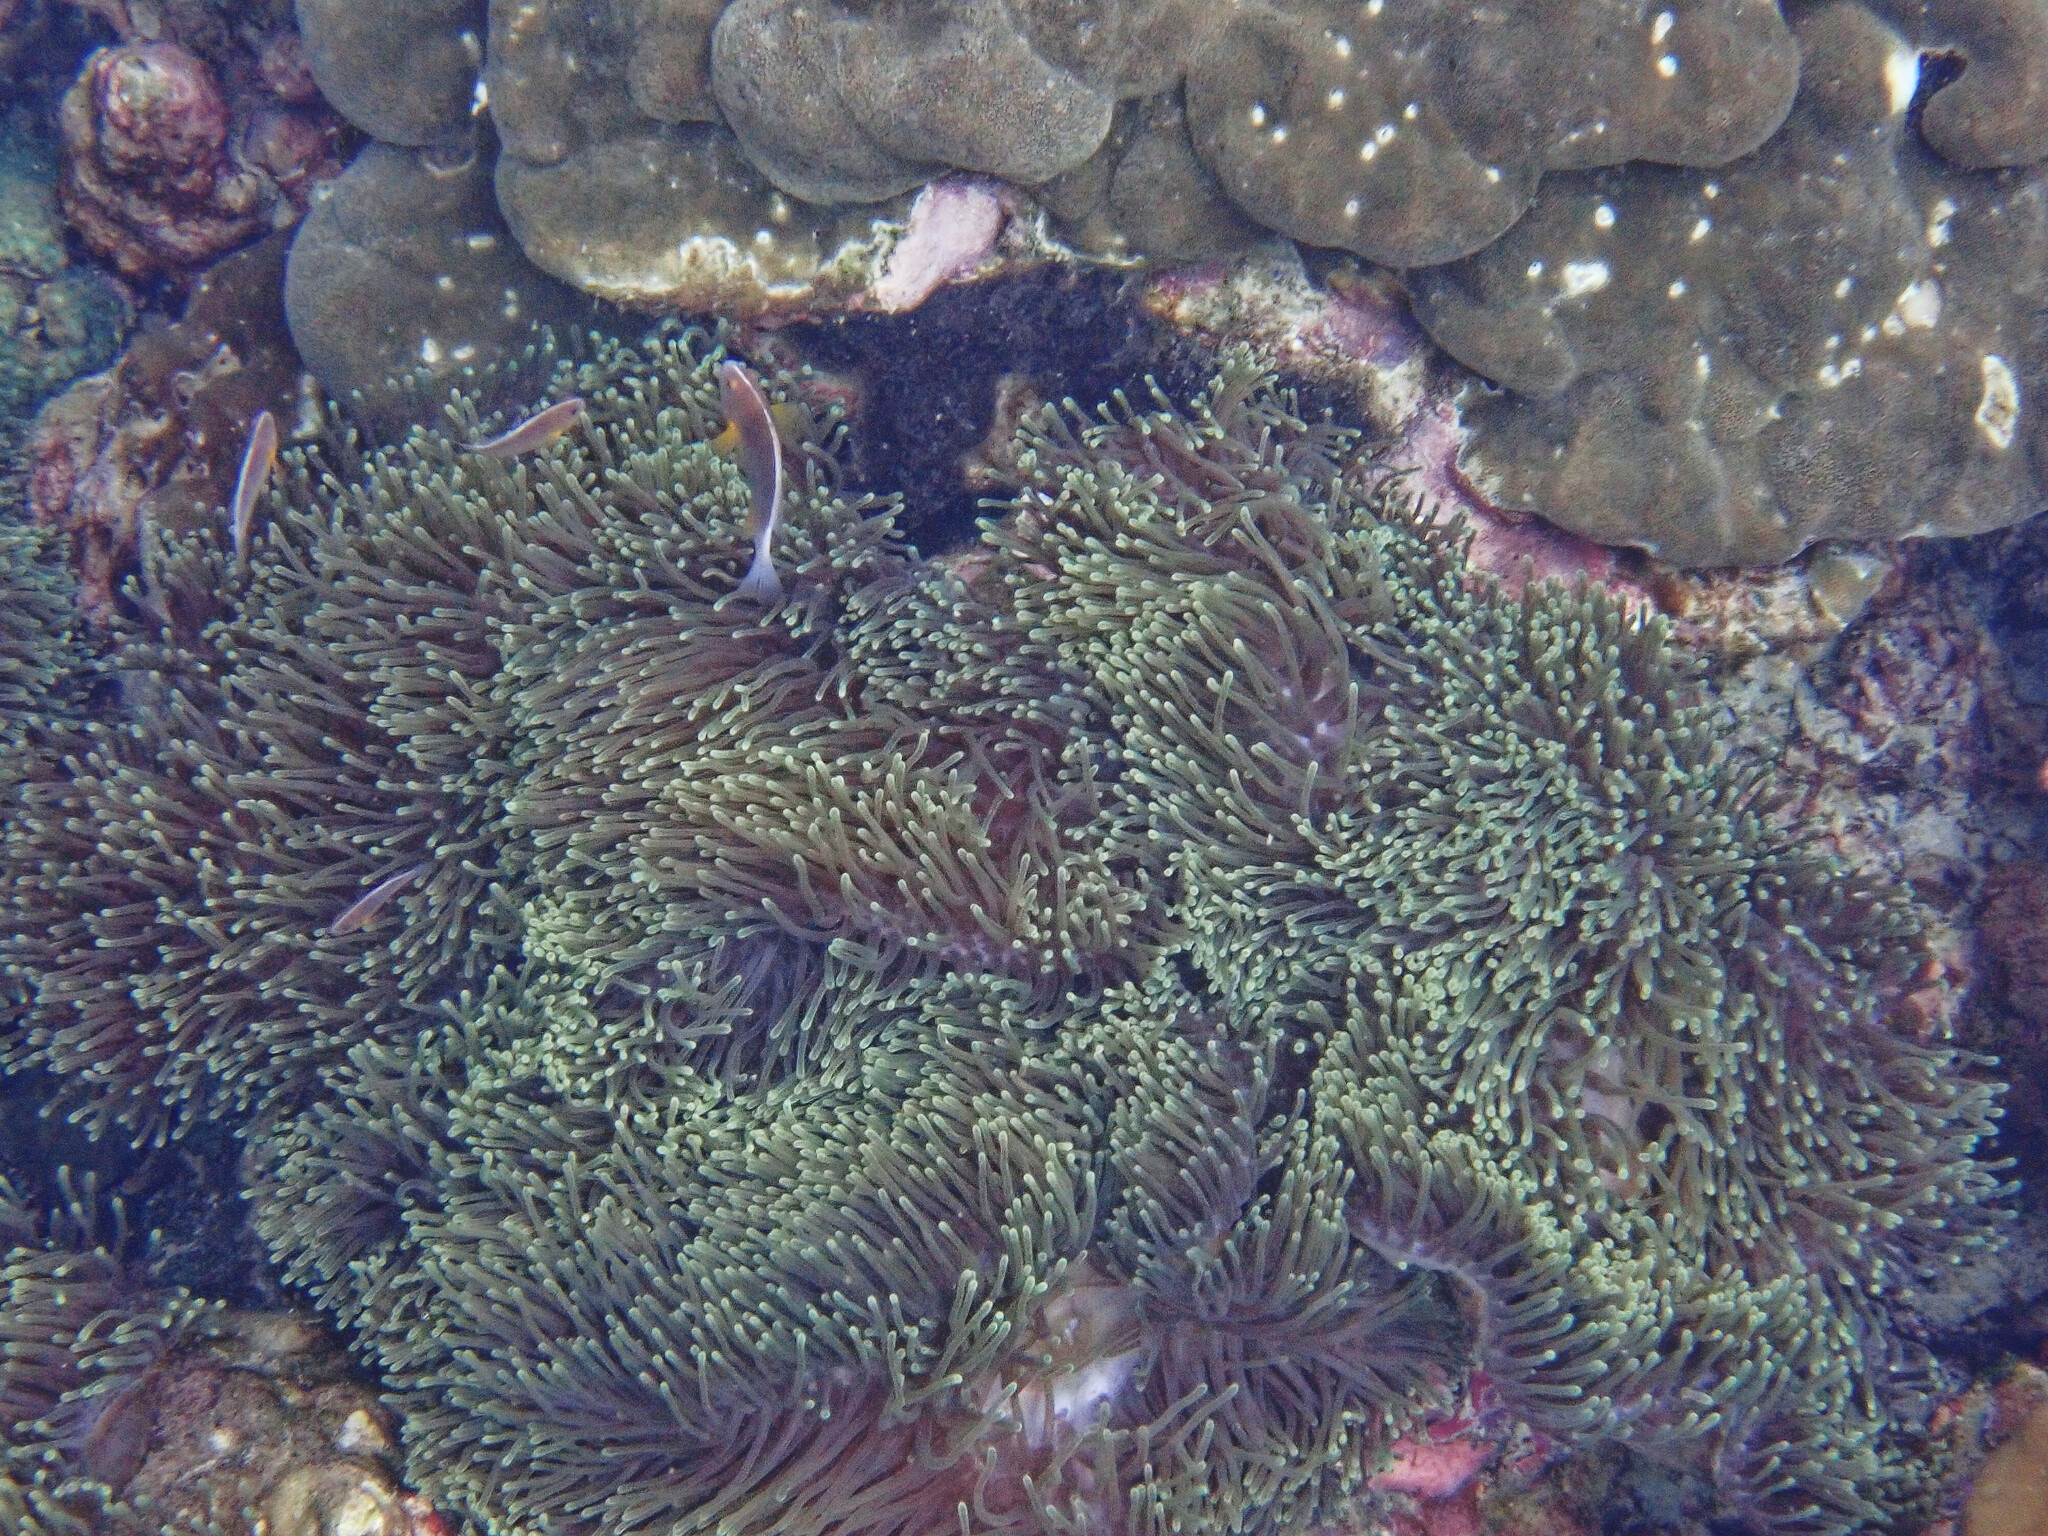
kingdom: Animalia
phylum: Cnidaria
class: Anthozoa
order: Actiniaria
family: Stichodactylidae
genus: Radianthus
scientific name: Radianthus magnifica
